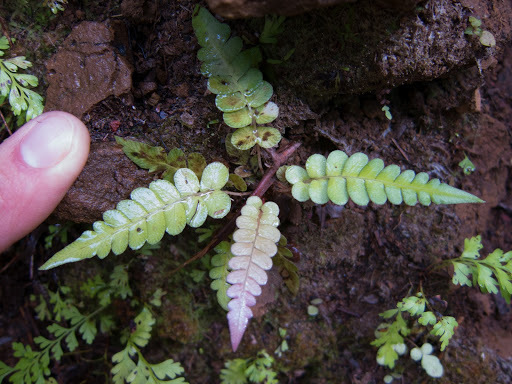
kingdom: Plantae
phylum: Tracheophyta
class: Polypodiopsida
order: Polypodiales
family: Blechnaceae
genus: Blechnum
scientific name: Blechnum appendiculatum
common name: Palm fern
